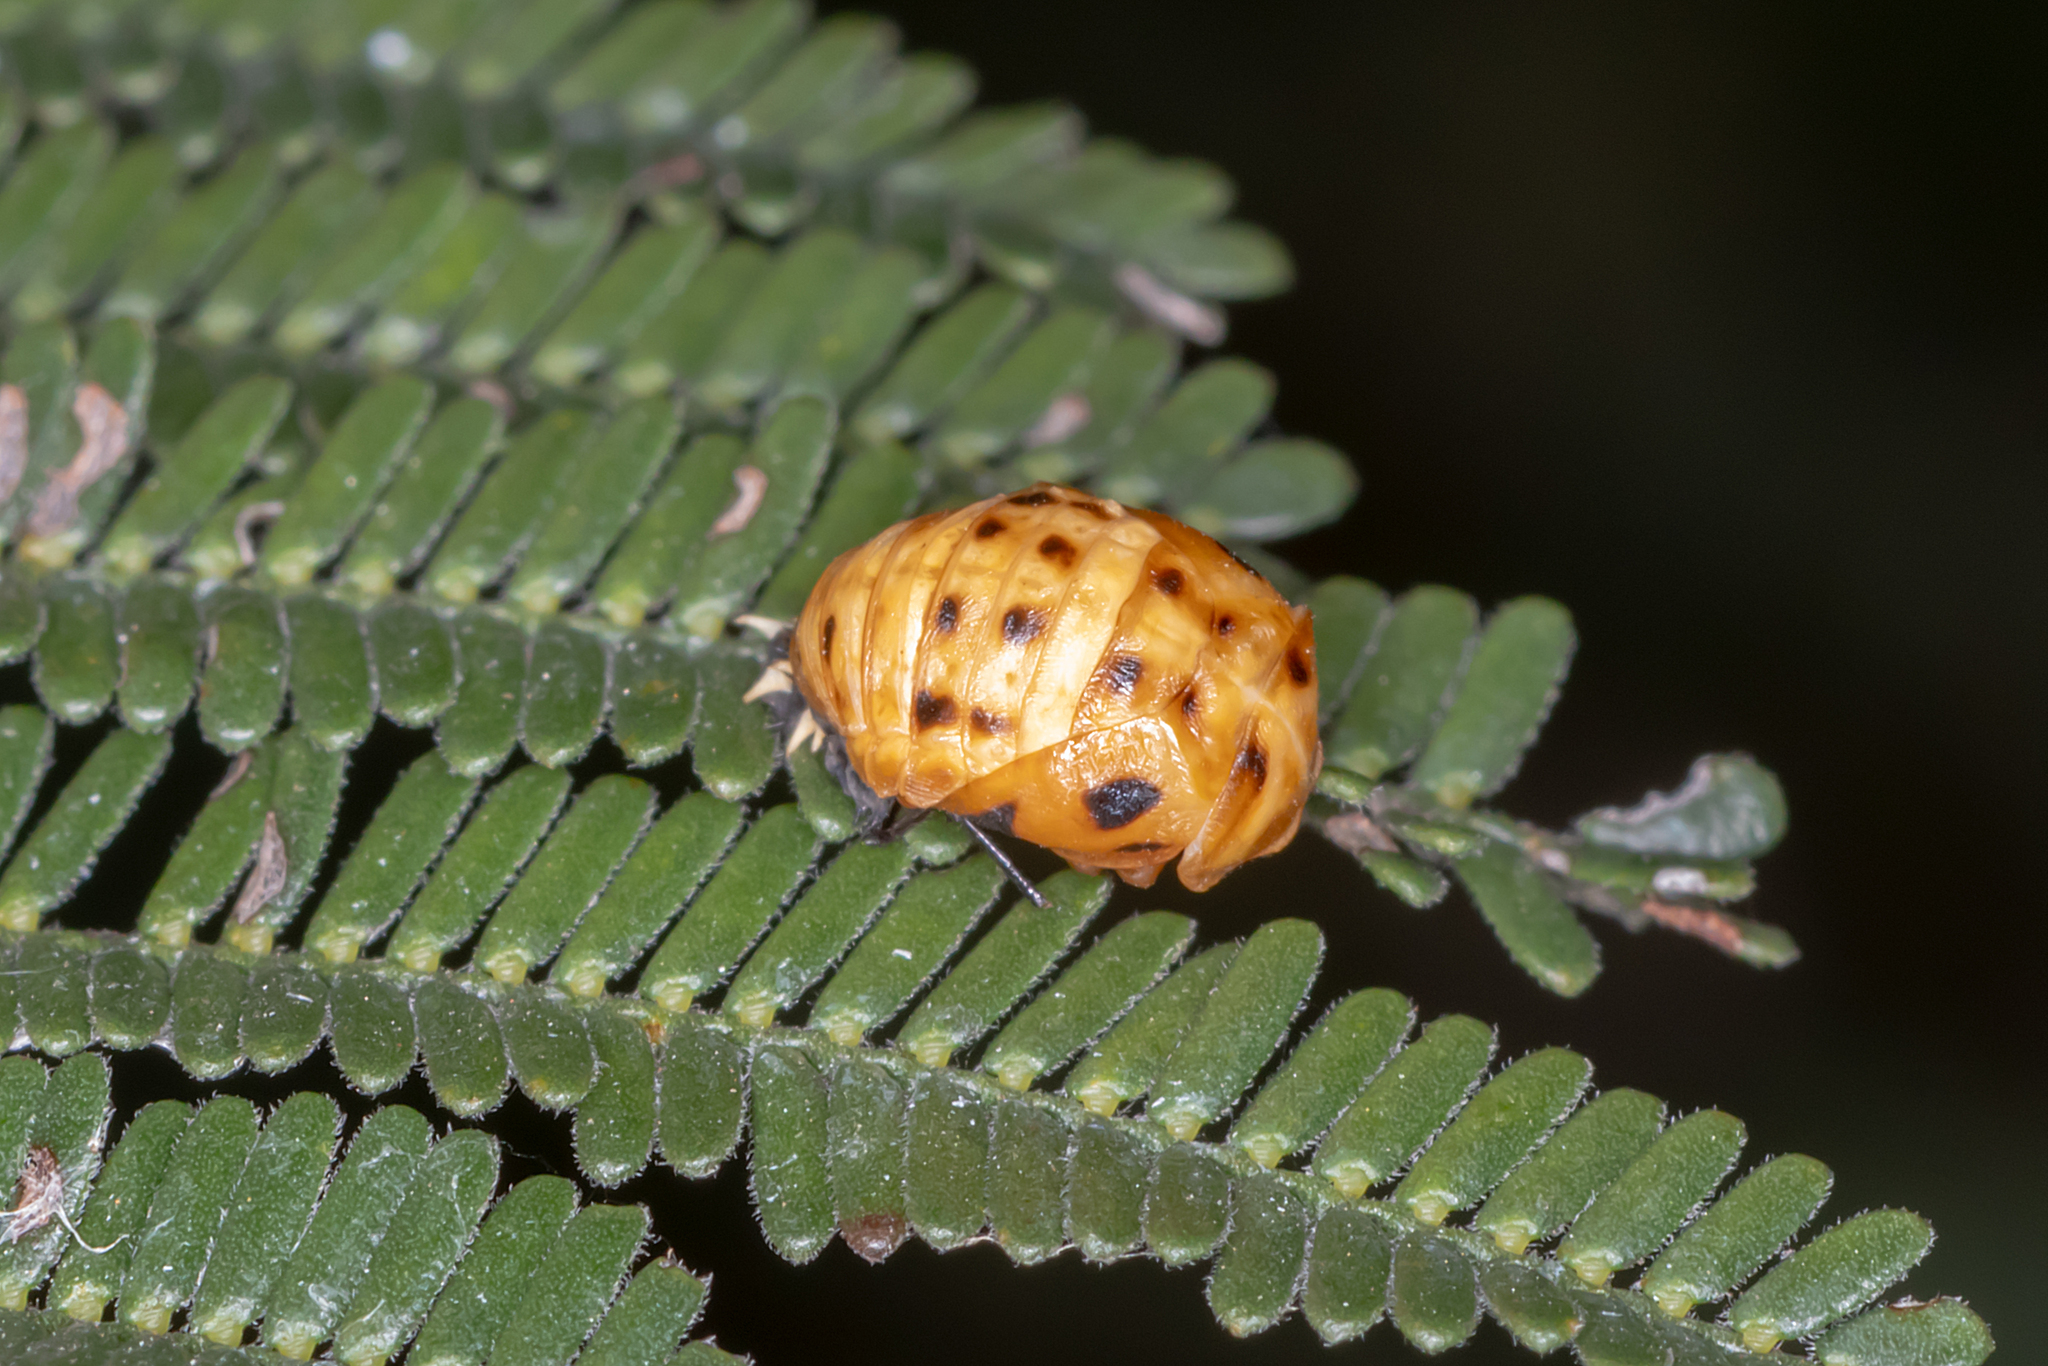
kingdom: Animalia
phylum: Arthropoda
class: Insecta
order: Coleoptera
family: Coccinellidae
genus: Harmonia
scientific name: Harmonia conformis
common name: Common spotted ladybird beetle
